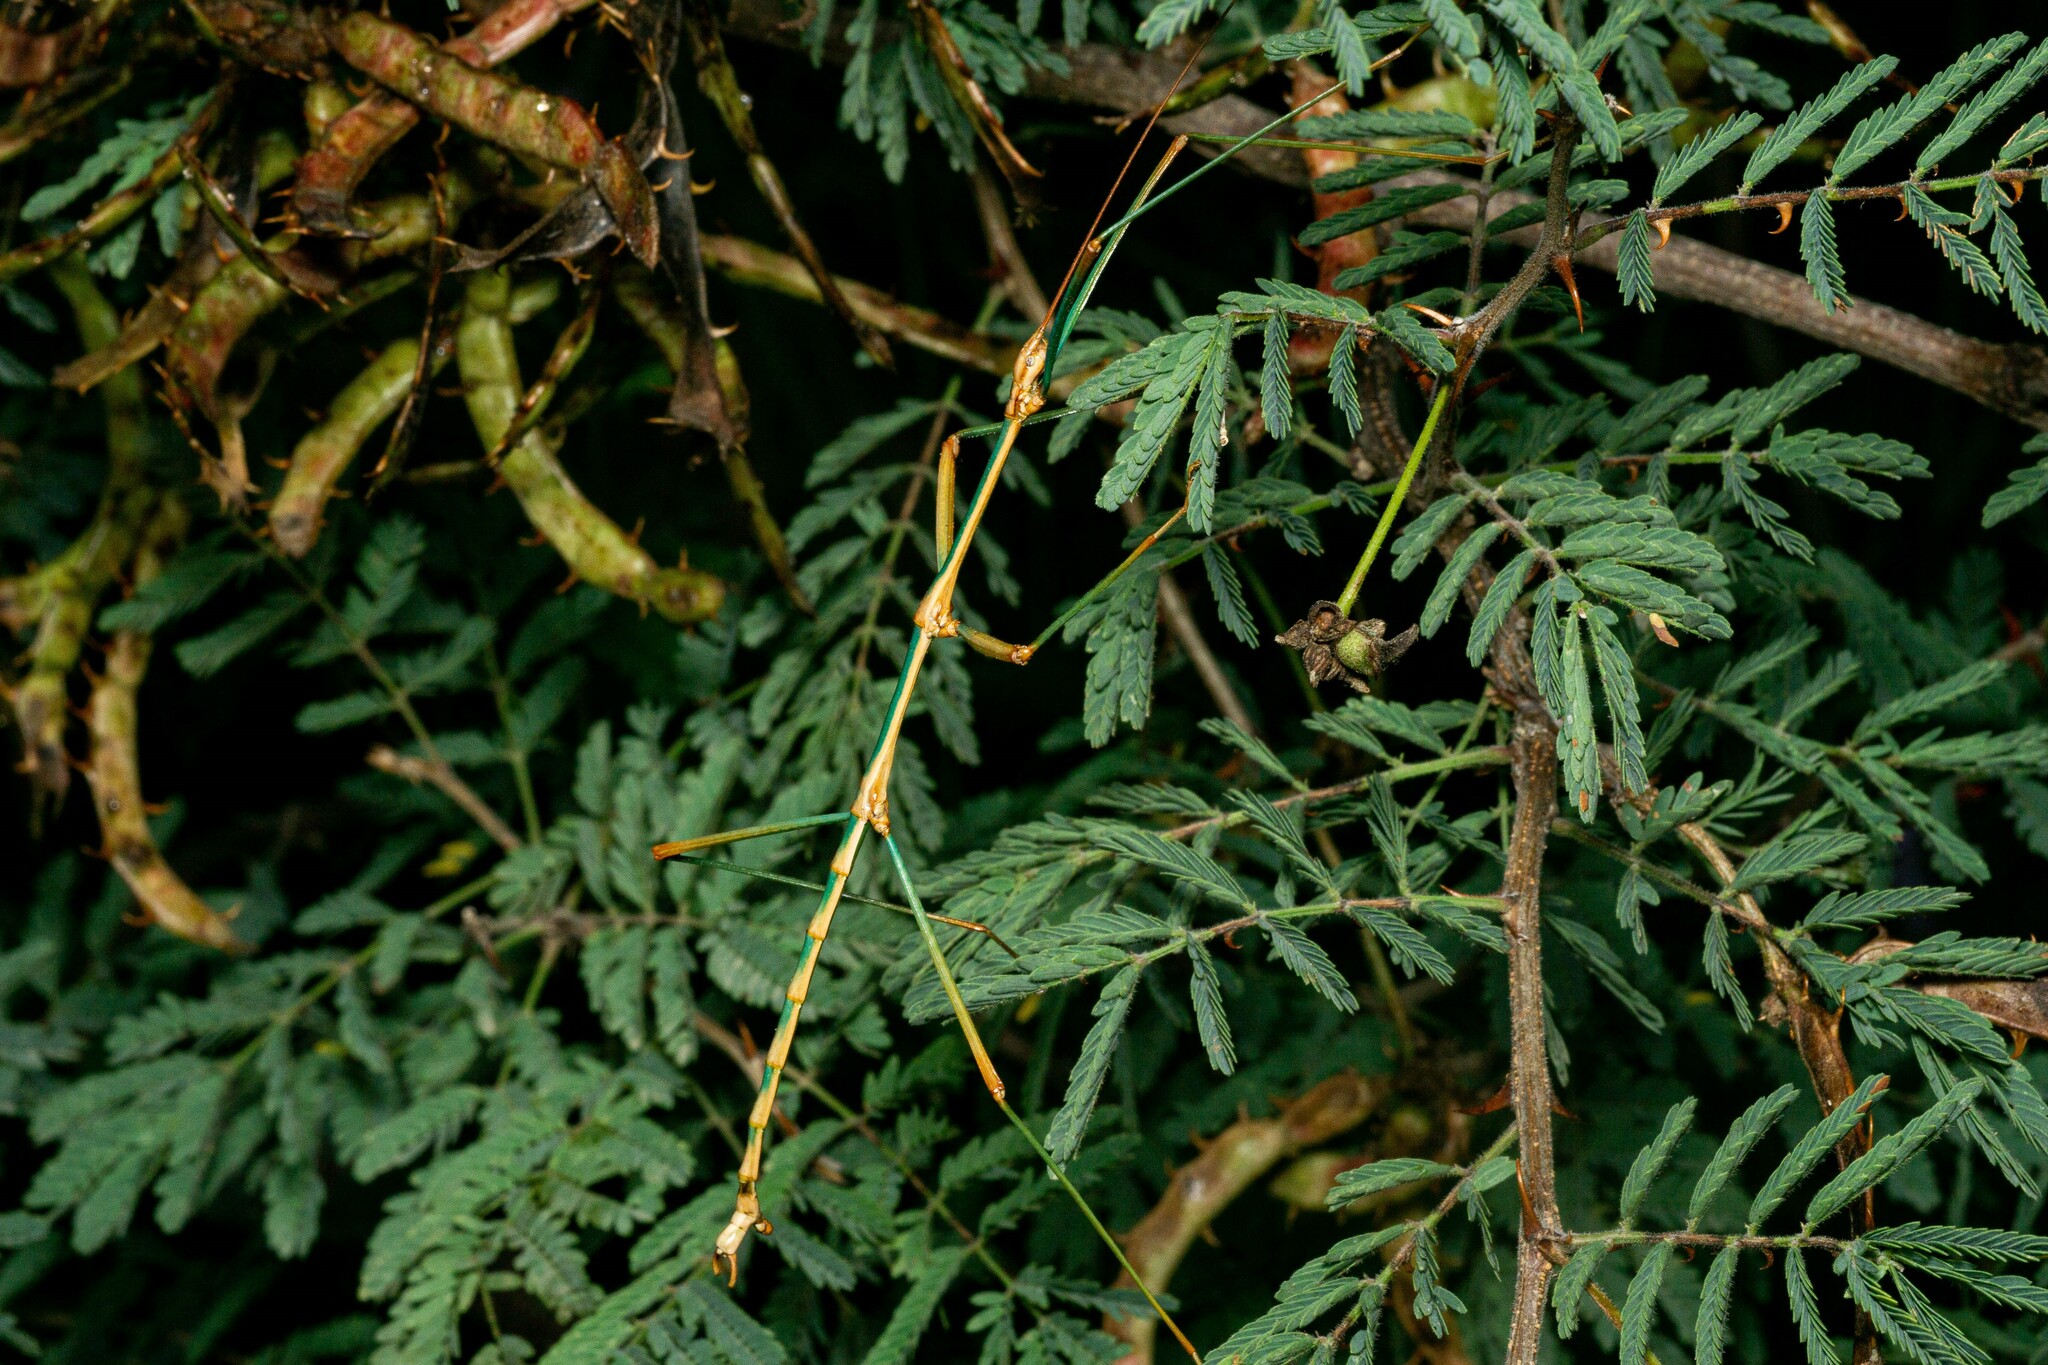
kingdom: Animalia
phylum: Arthropoda
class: Insecta
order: Phasmida
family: Diapheromeridae
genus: Diapheromera
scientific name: Diapheromera arizonensis
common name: Arizona walkingstick
